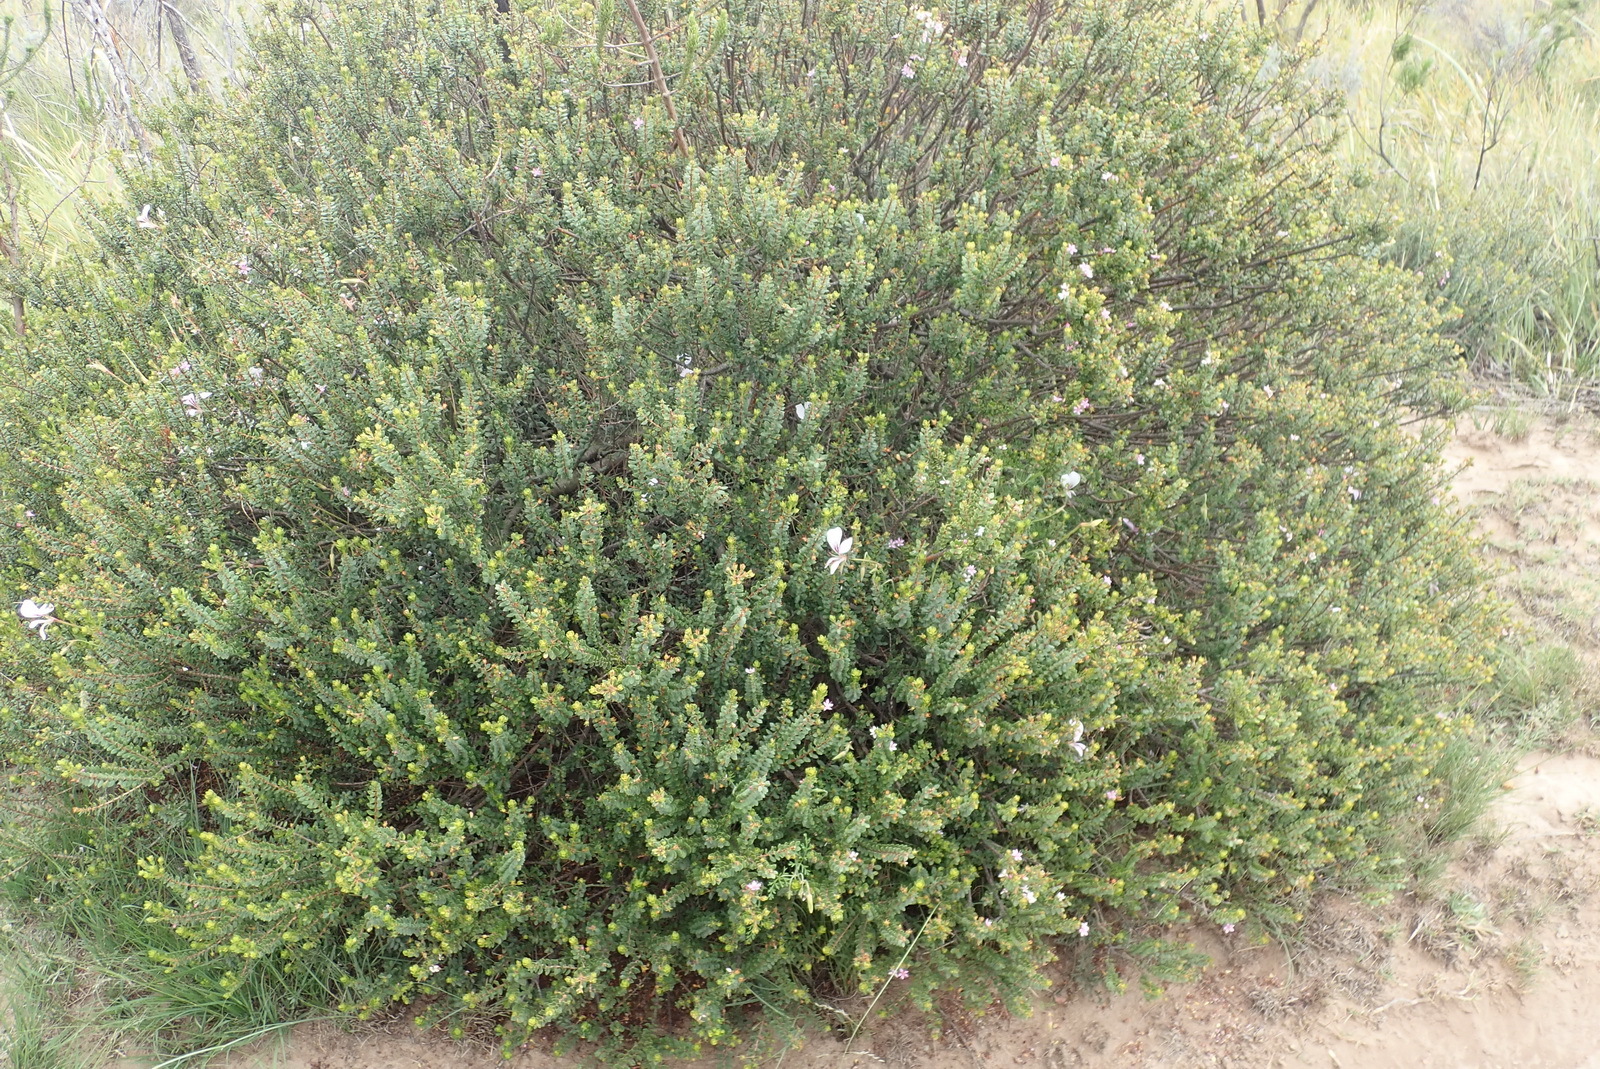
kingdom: Plantae
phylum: Tracheophyta
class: Magnoliopsida
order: Geraniales
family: Geraniaceae
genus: Pelargonium
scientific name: Pelargonium caucalifolium
